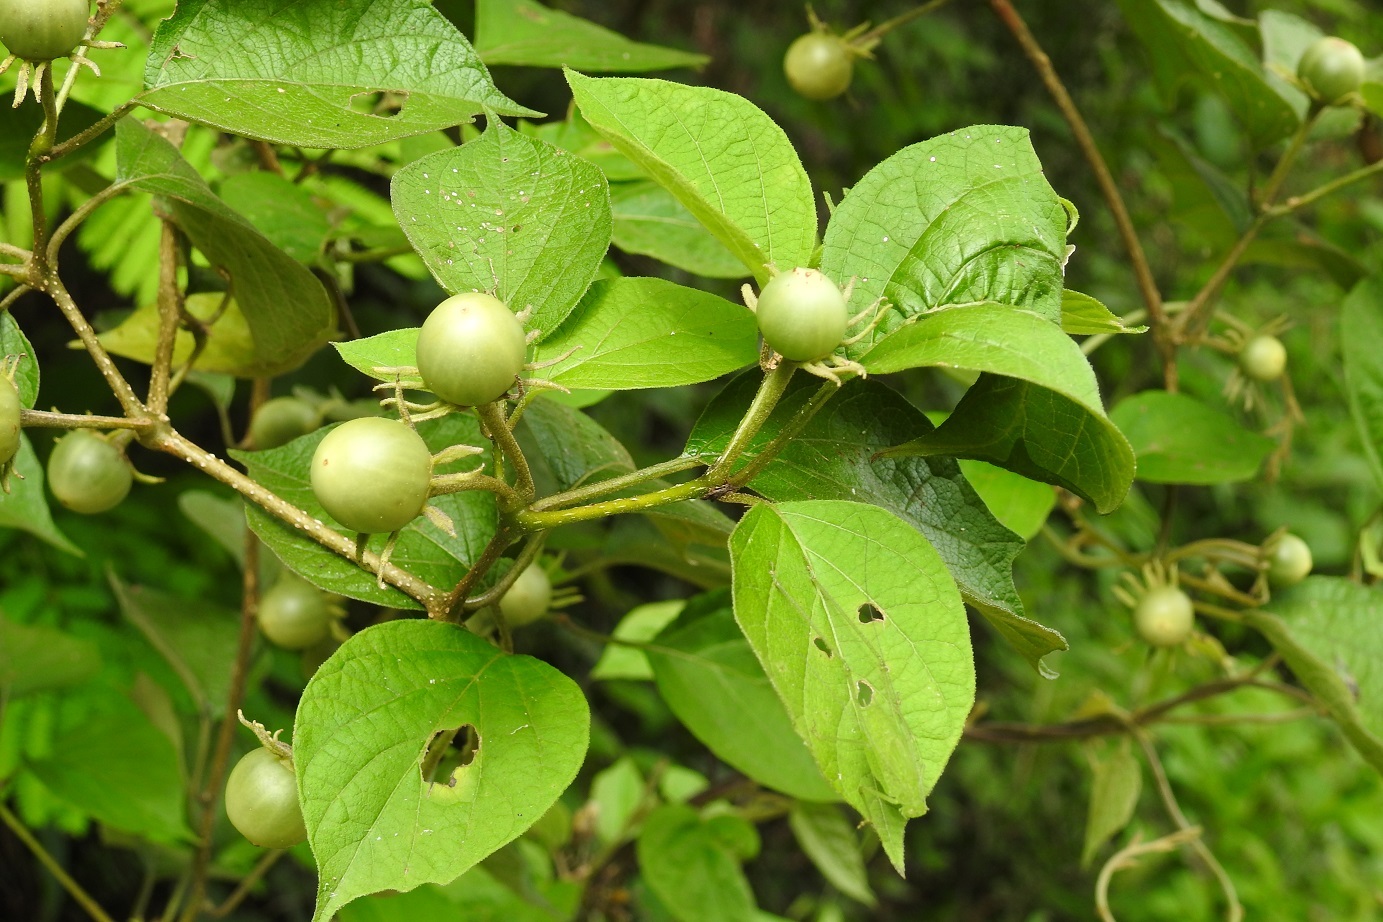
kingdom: Plantae
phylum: Tracheophyta
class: Magnoliopsida
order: Solanales
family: Solanaceae
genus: Lycianthes
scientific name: Lycianthes scandens
